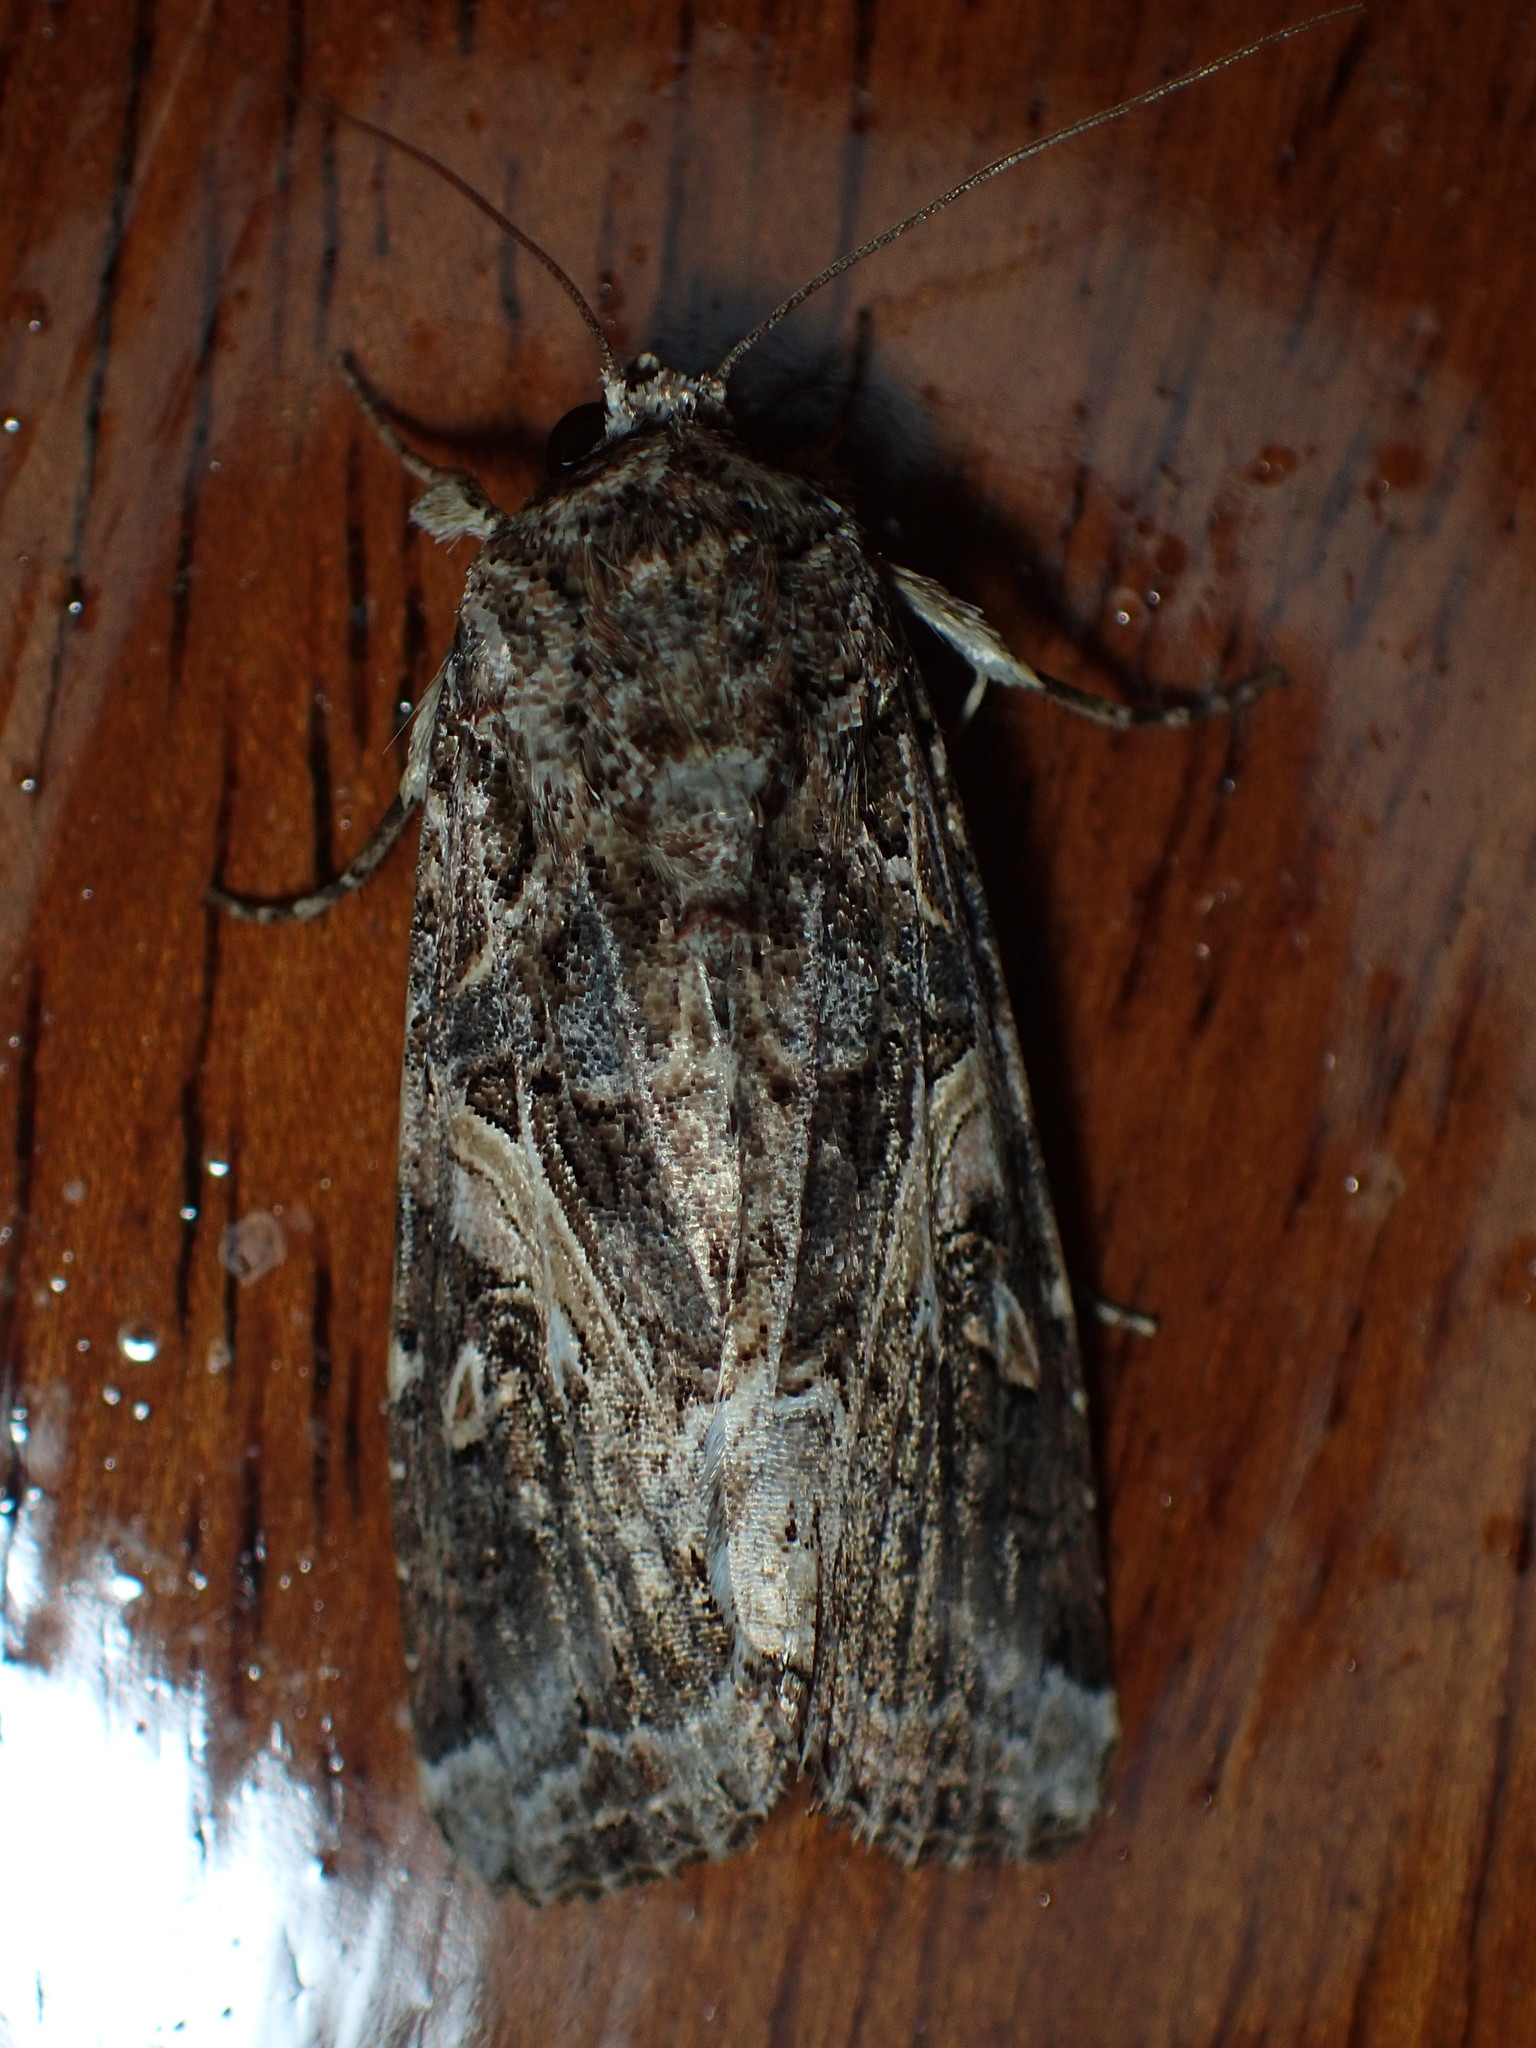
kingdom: Animalia
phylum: Arthropoda
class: Insecta
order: Lepidoptera
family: Noctuidae
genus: Spodoptera
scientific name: Spodoptera ornithogalli
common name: Yellow-striped armyworm
